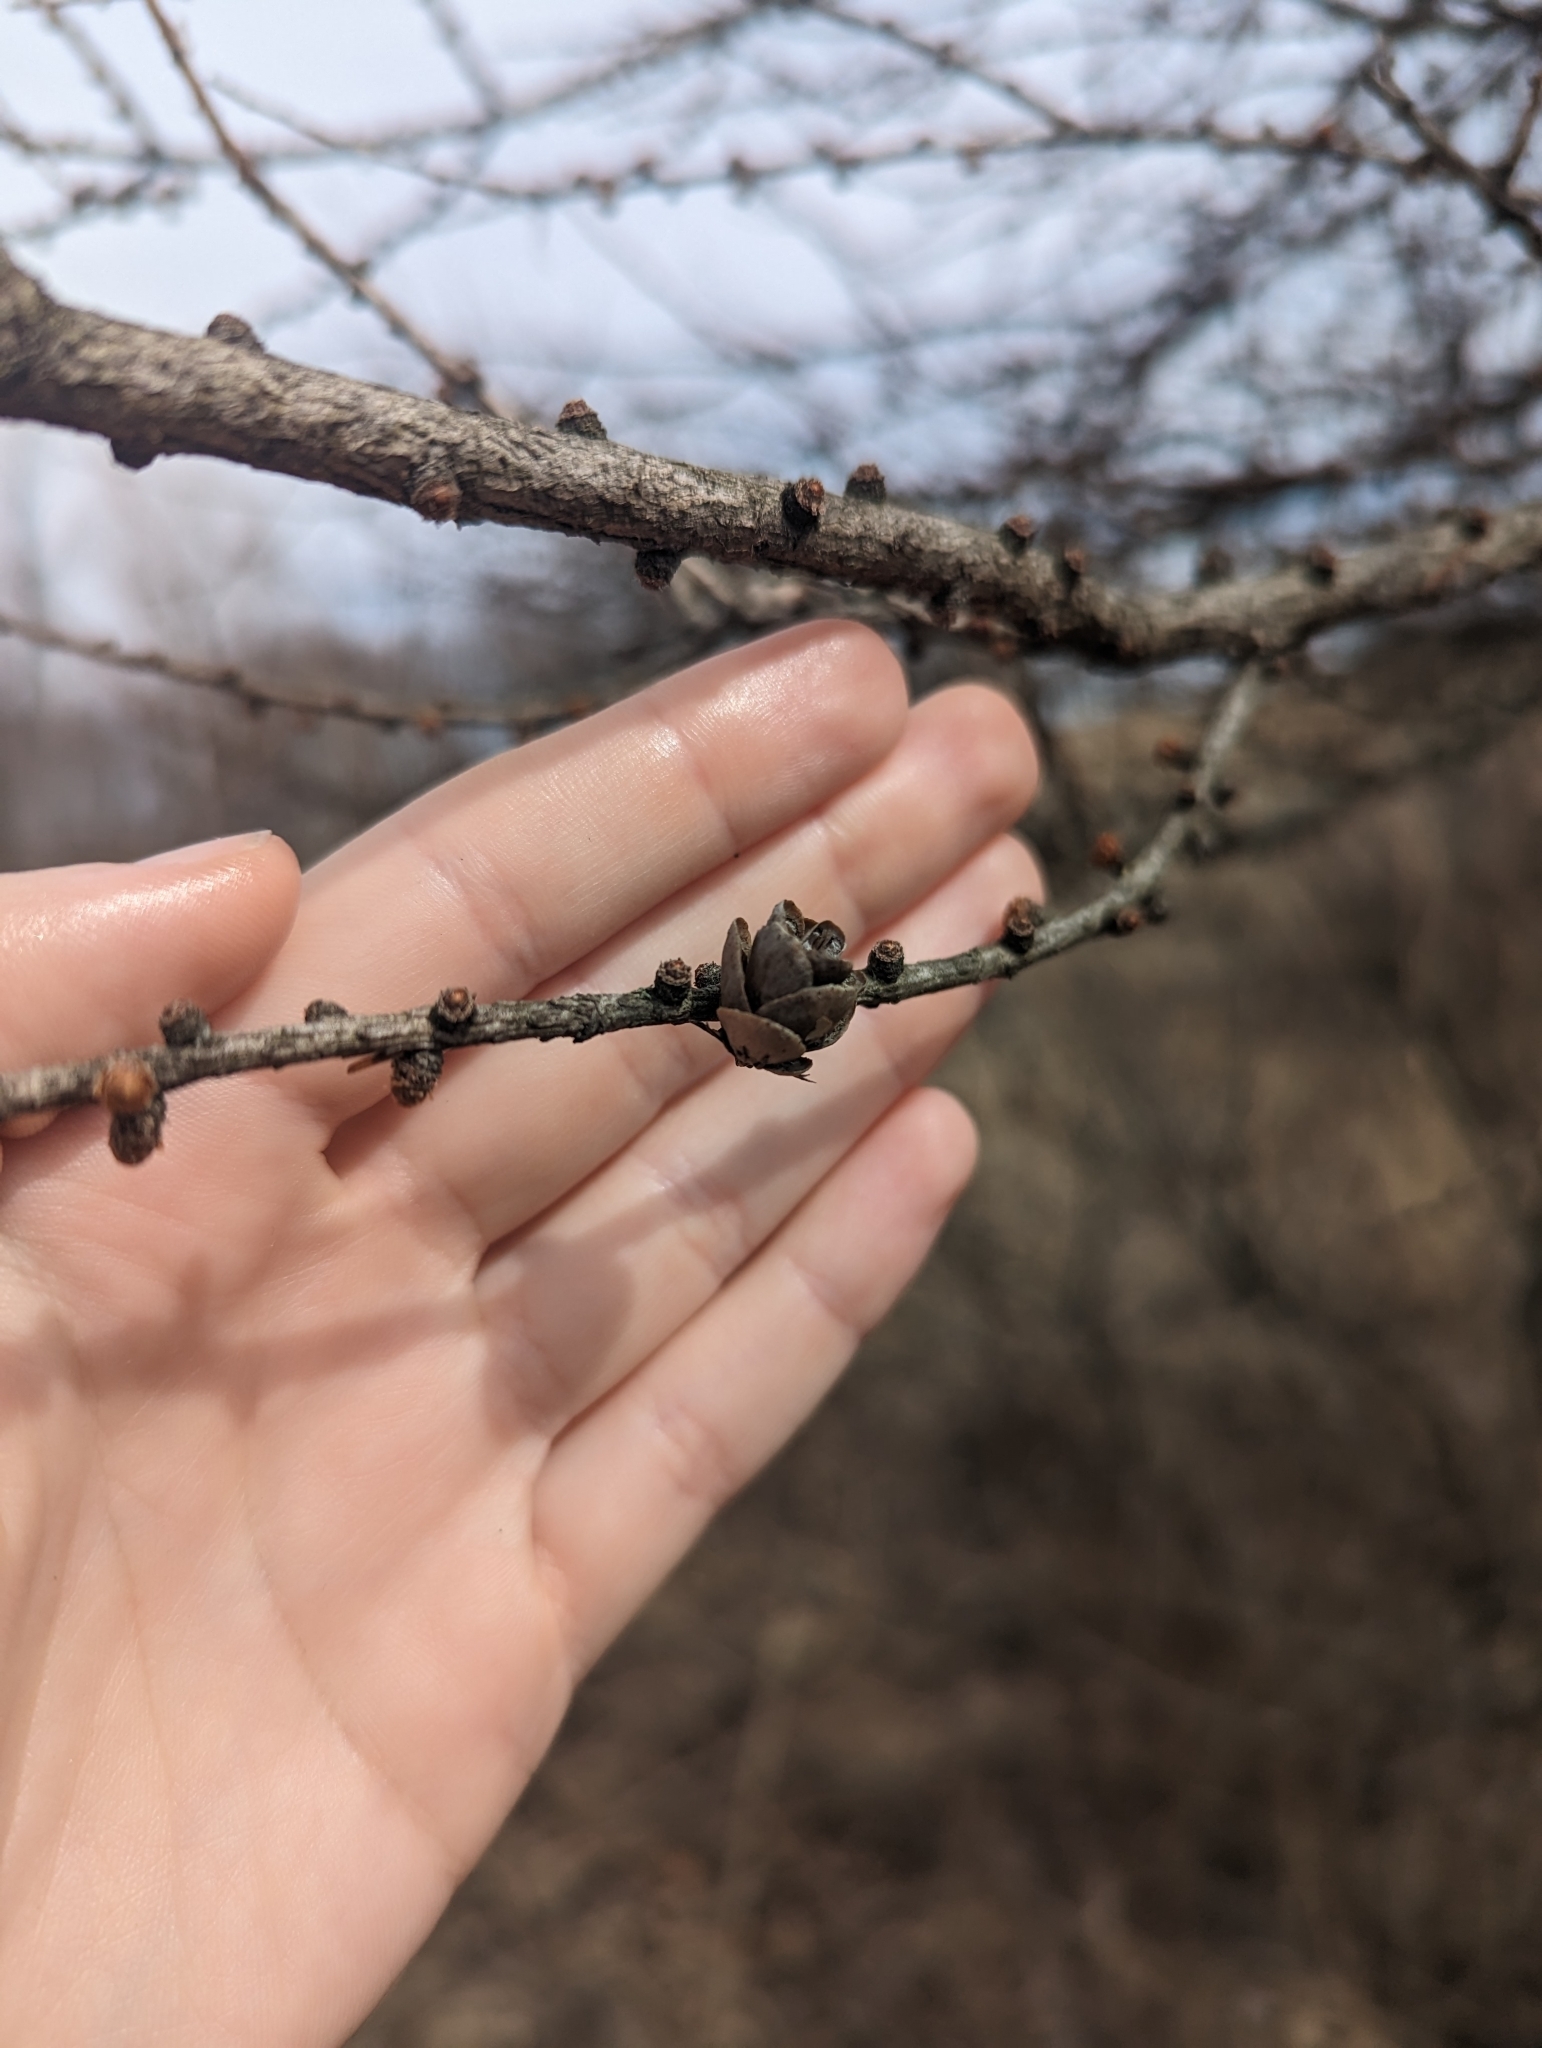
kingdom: Plantae
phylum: Tracheophyta
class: Pinopsida
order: Pinales
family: Pinaceae
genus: Larix
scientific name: Larix laricina
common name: American larch
